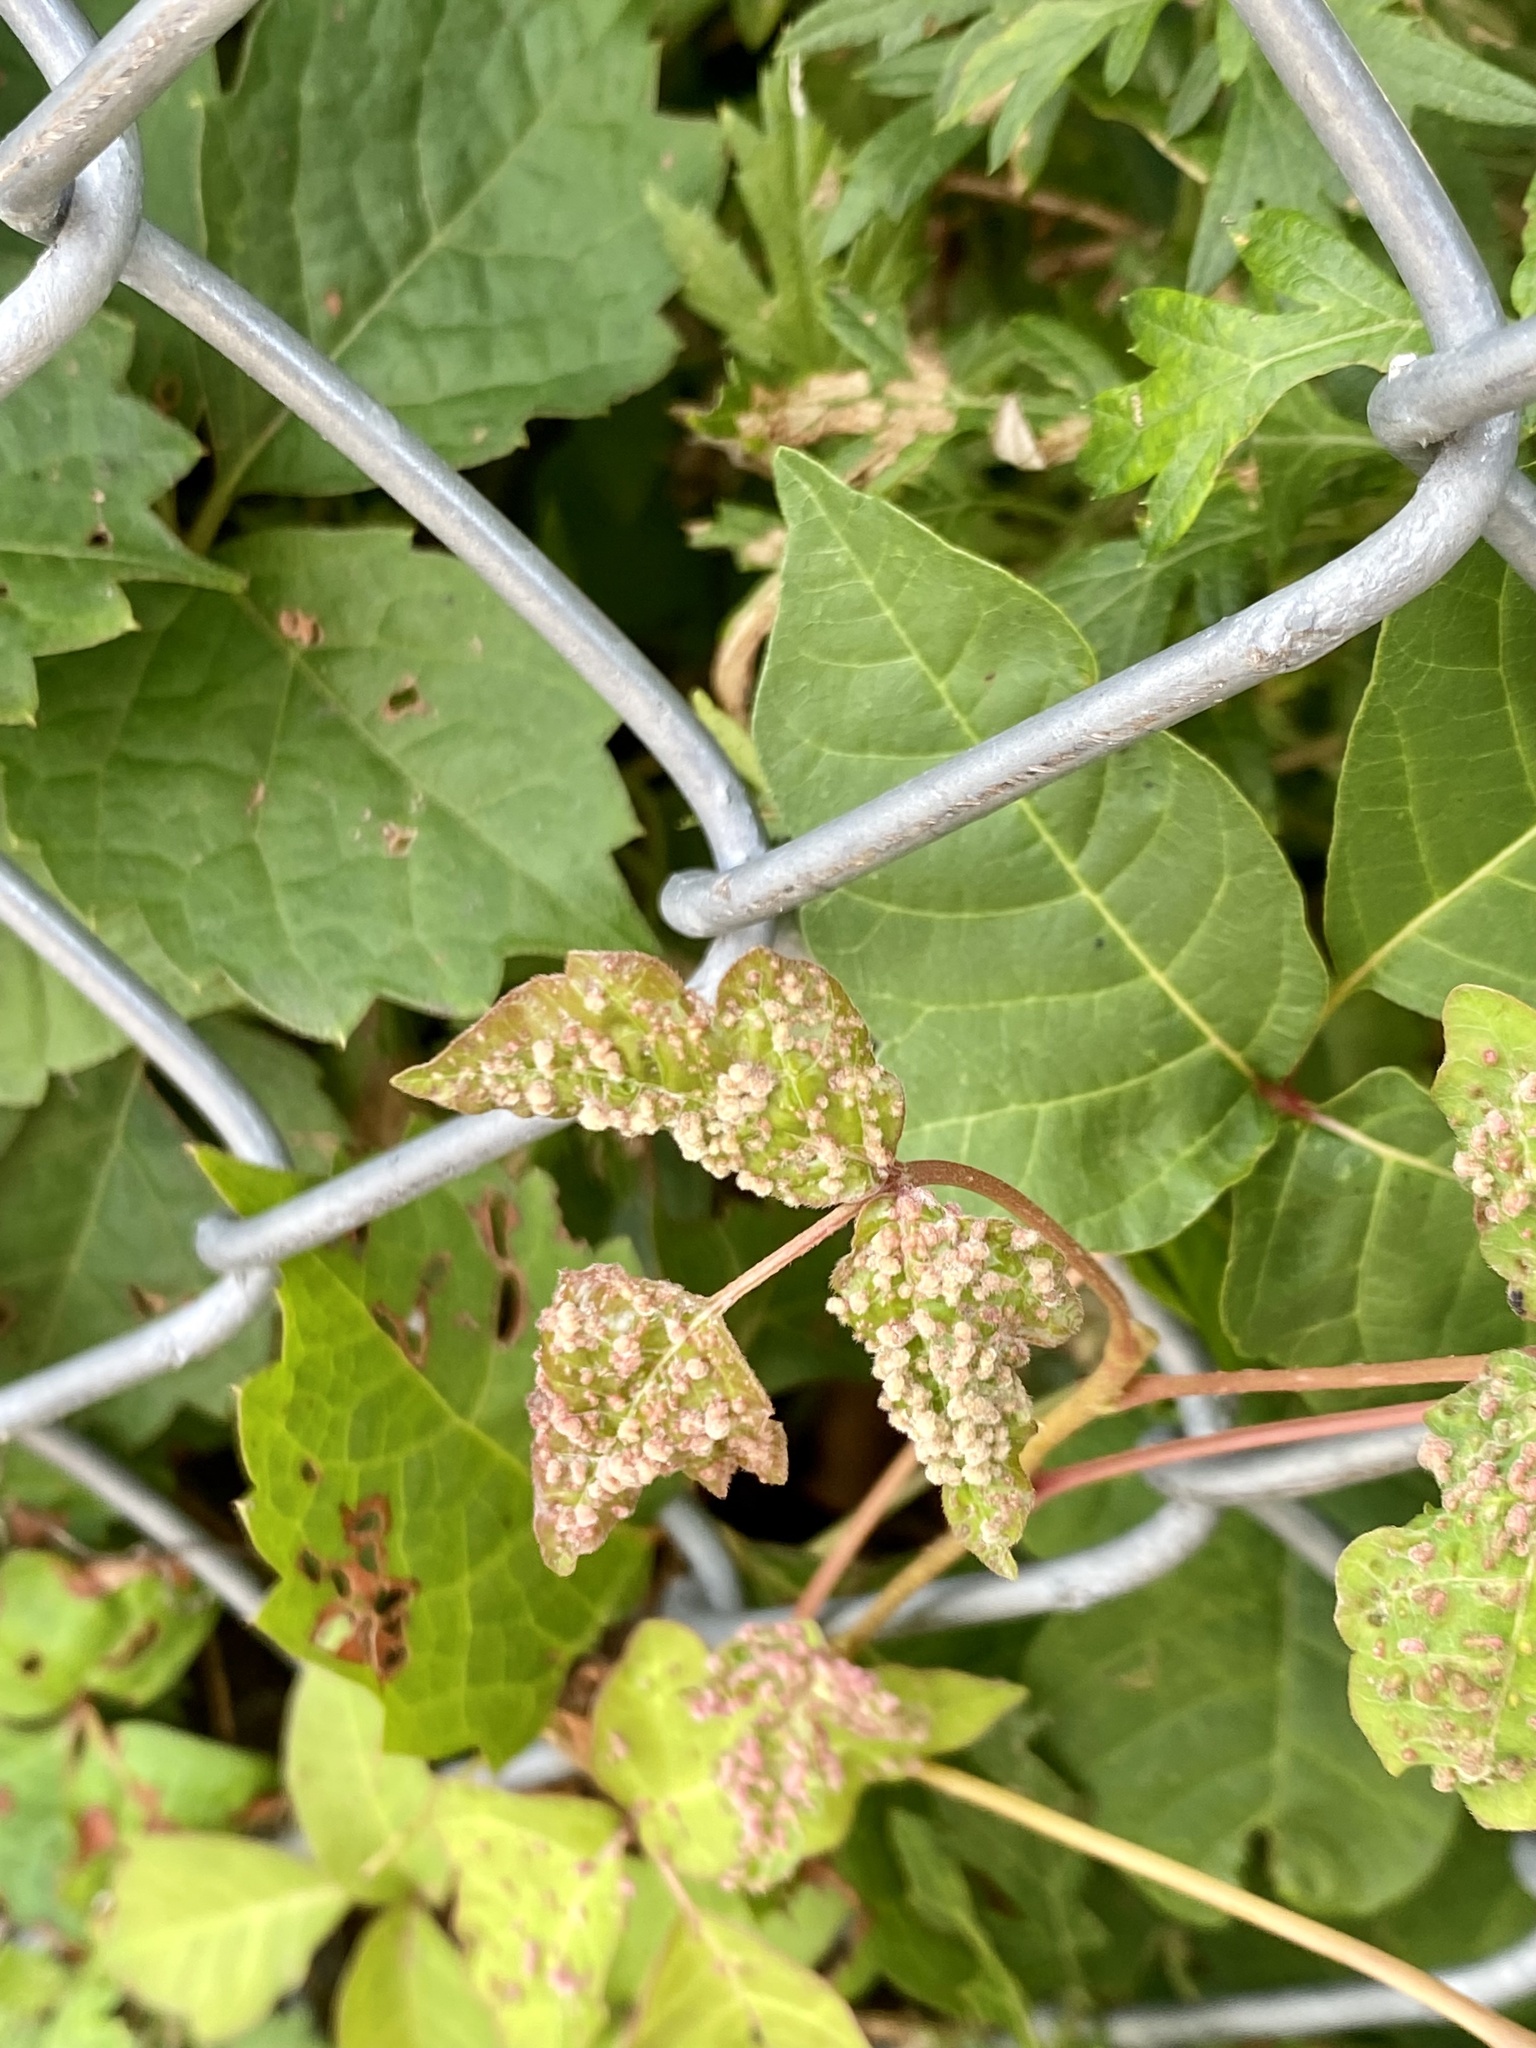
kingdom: Animalia
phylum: Arthropoda
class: Arachnida
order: Trombidiformes
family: Eriophyidae
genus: Aculops
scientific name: Aculops
